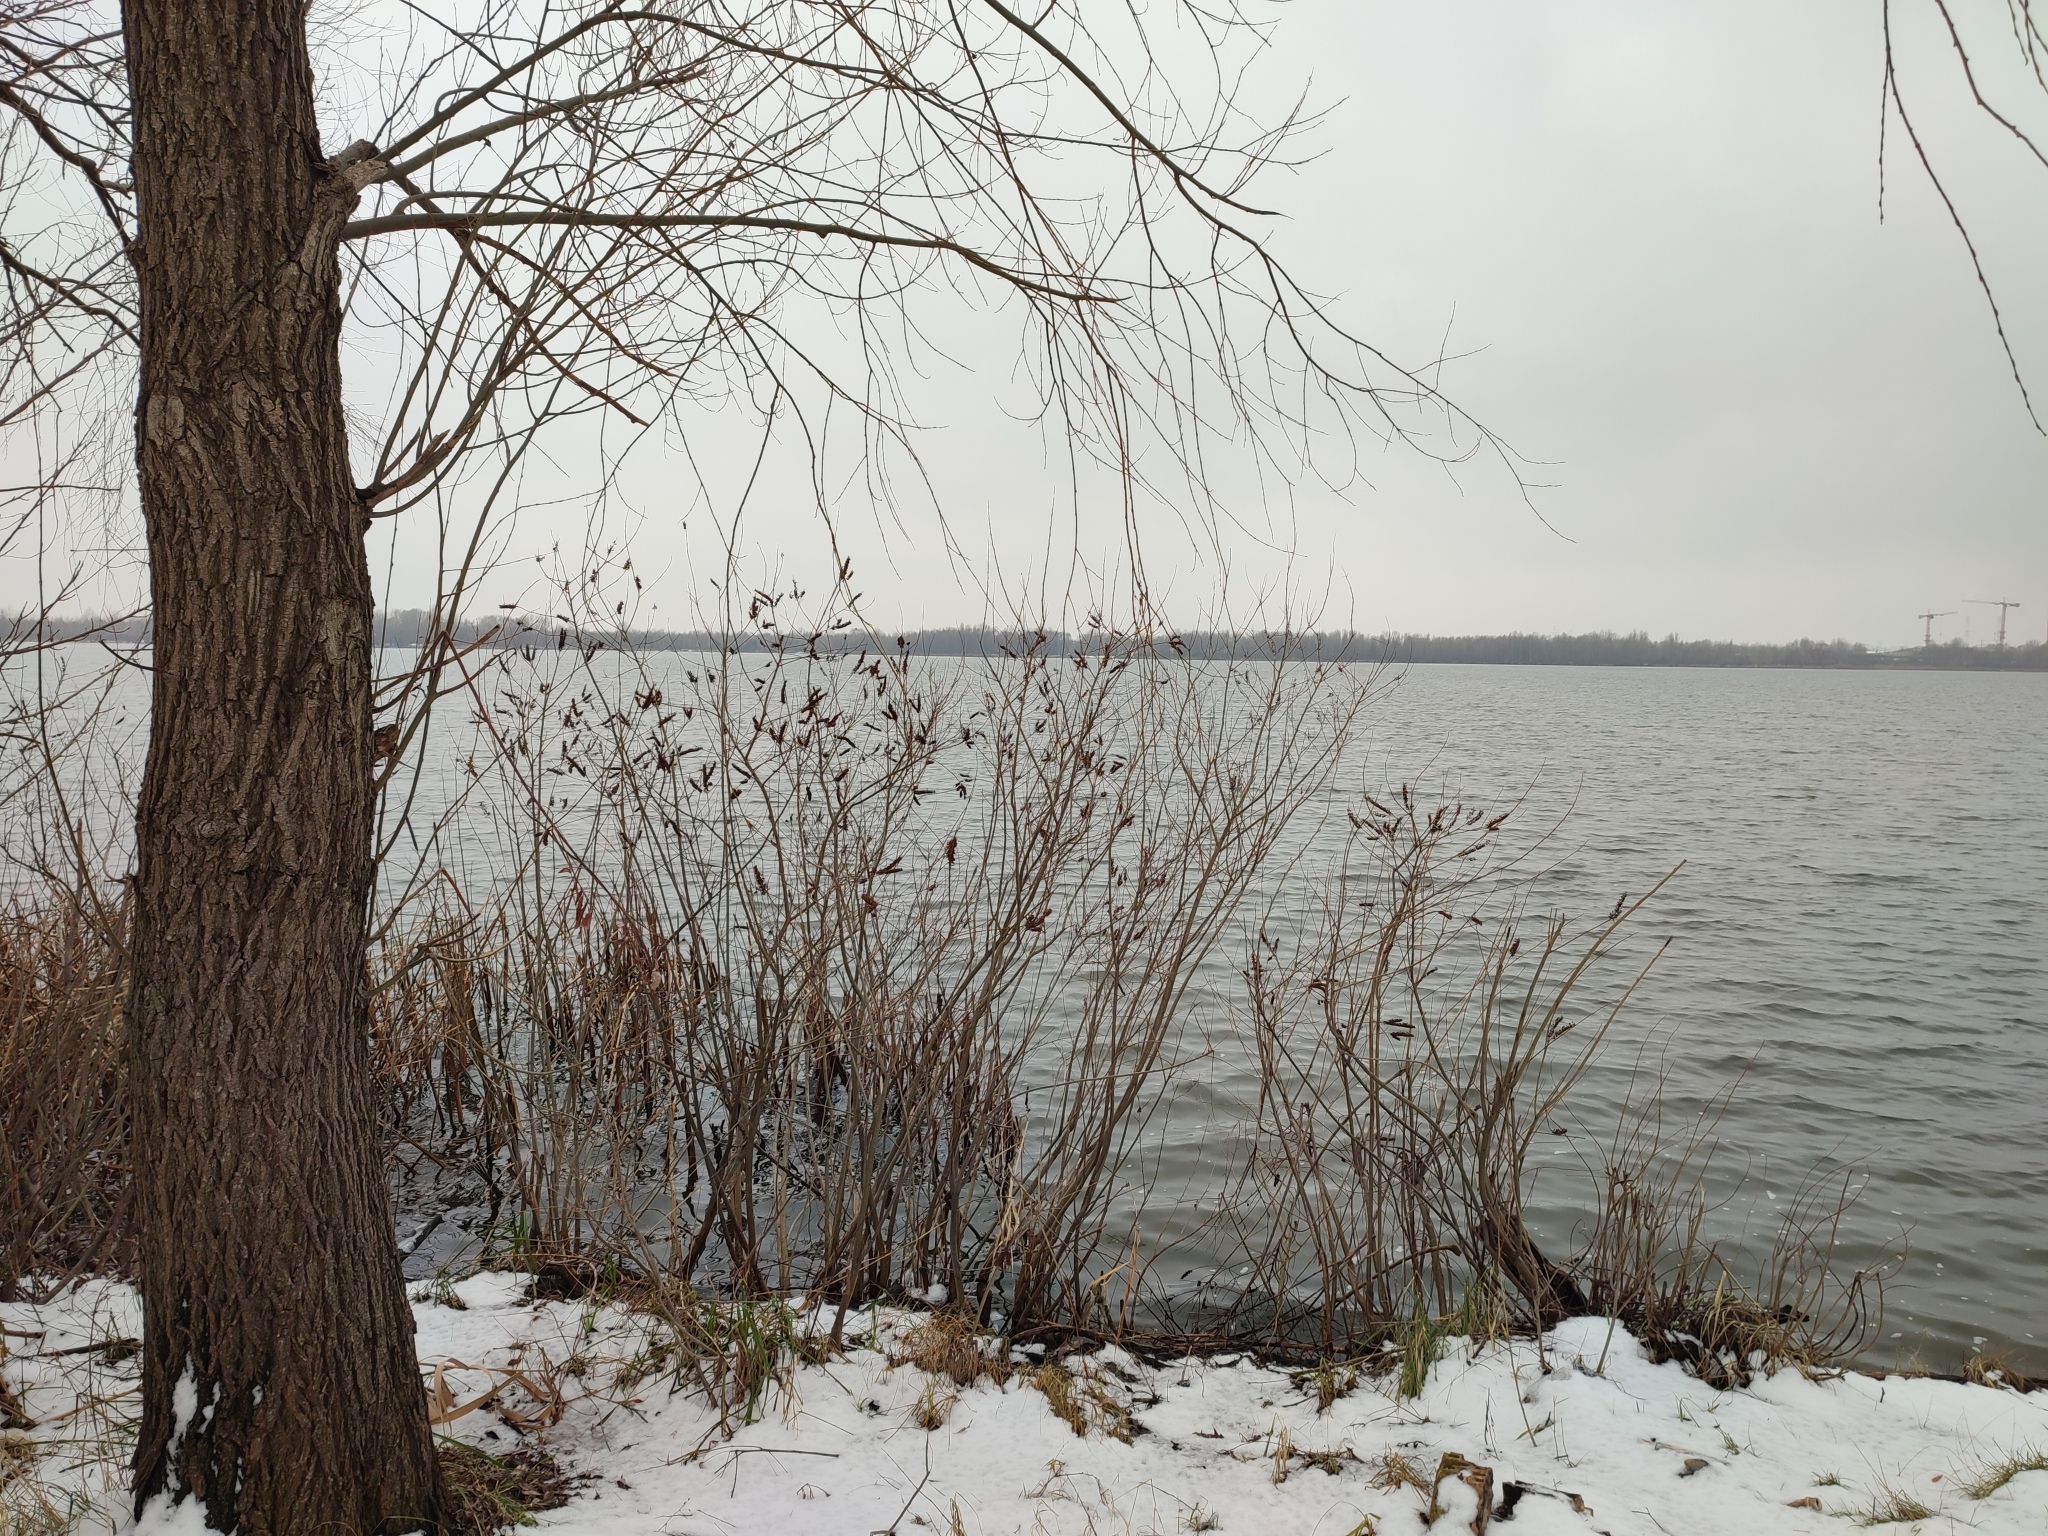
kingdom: Plantae
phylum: Tracheophyta
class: Magnoliopsida
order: Fabales
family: Fabaceae
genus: Amorpha
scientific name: Amorpha fruticosa
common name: False indigo
